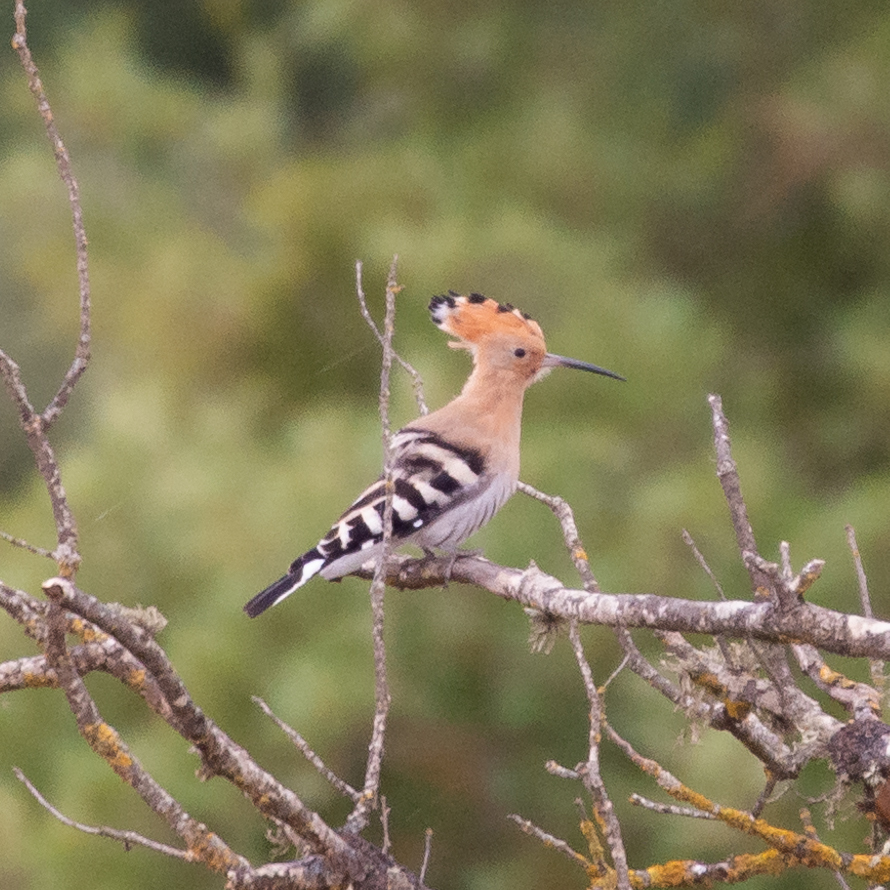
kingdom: Animalia
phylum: Chordata
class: Aves
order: Bucerotiformes
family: Upupidae
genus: Upupa
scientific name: Upupa epops
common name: Eurasian hoopoe
